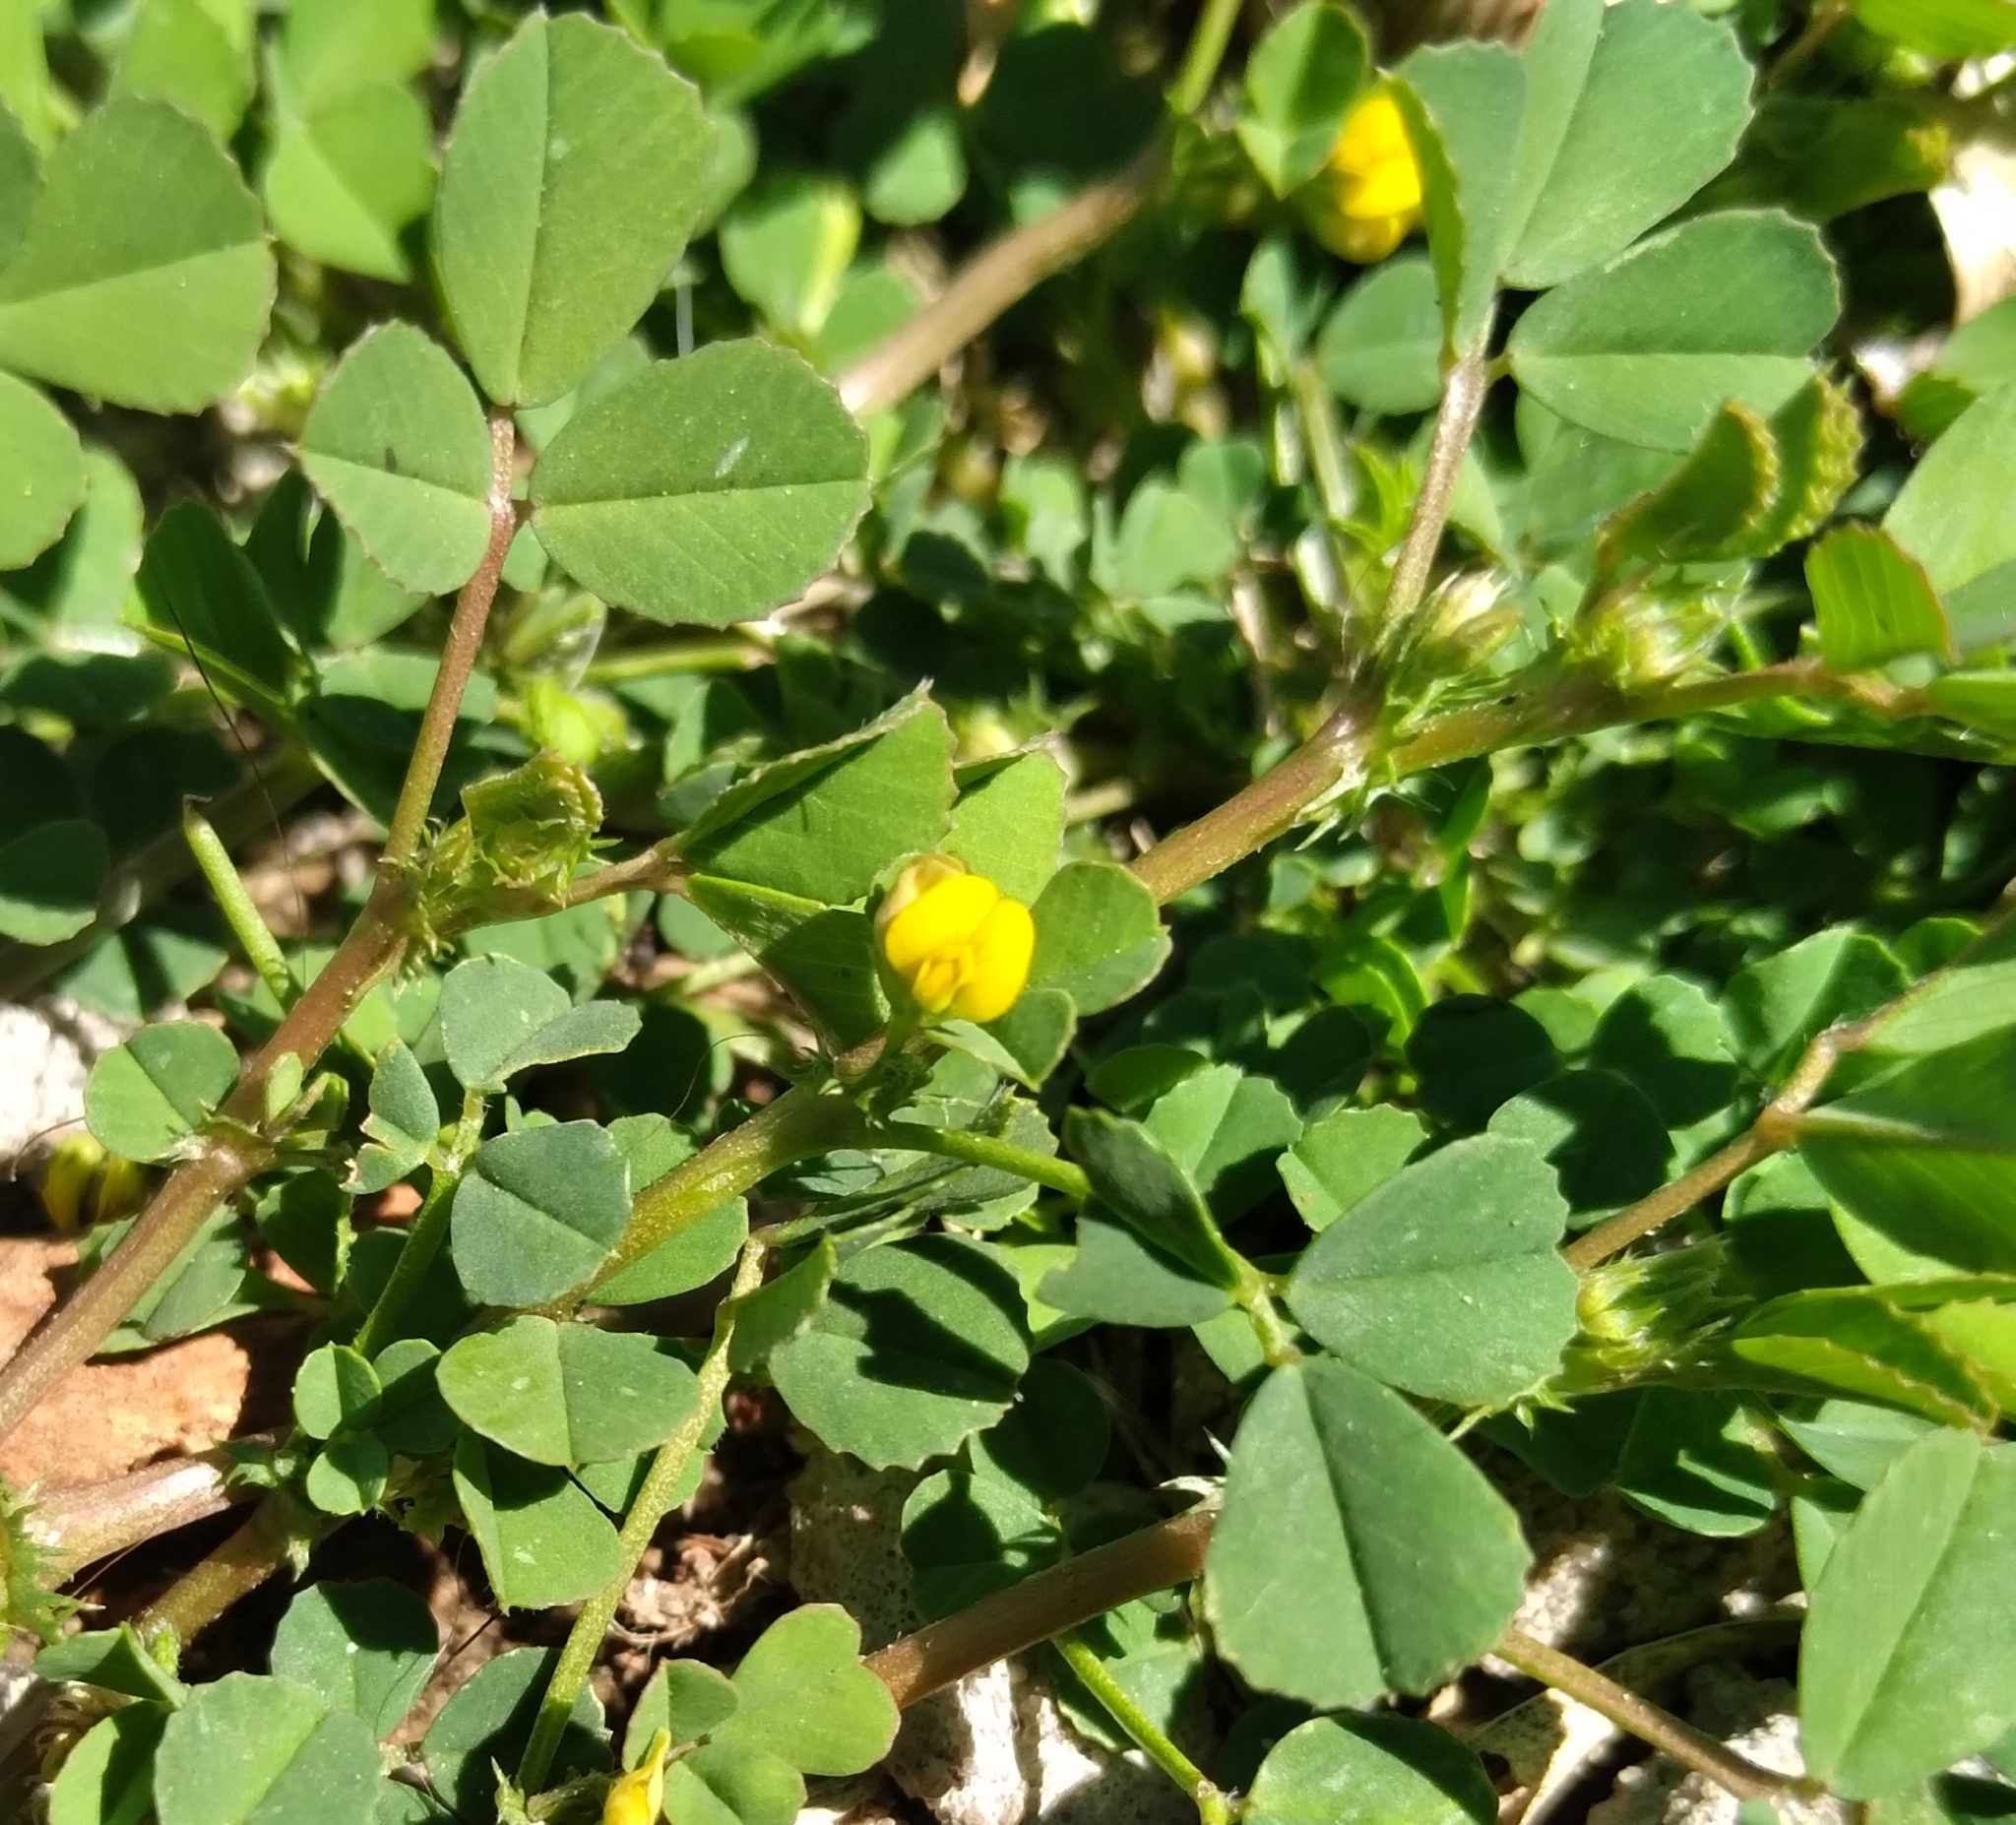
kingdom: Plantae
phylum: Tracheophyta
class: Magnoliopsida
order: Fabales
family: Fabaceae
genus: Medicago
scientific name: Medicago polymorpha
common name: Burclover
